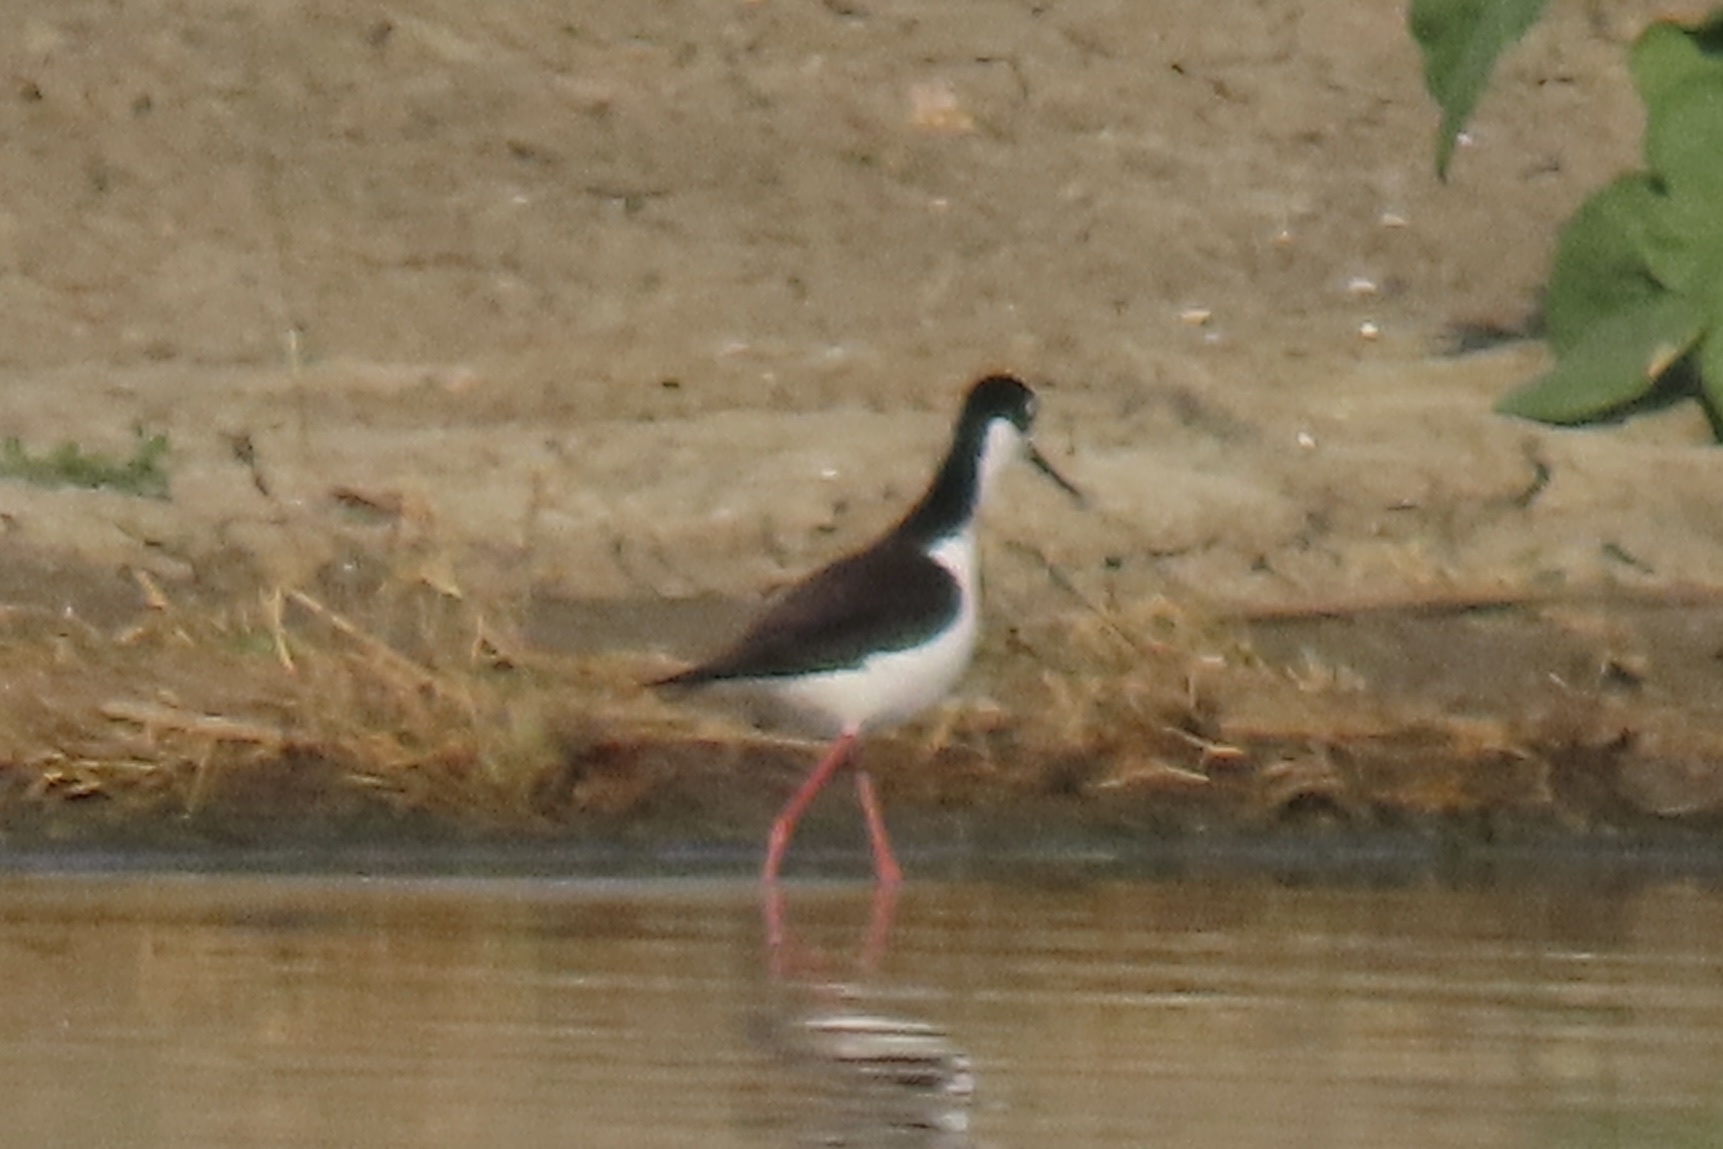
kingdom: Animalia
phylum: Chordata
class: Aves
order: Charadriiformes
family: Recurvirostridae
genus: Himantopus
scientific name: Himantopus mexicanus
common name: Black-necked stilt
